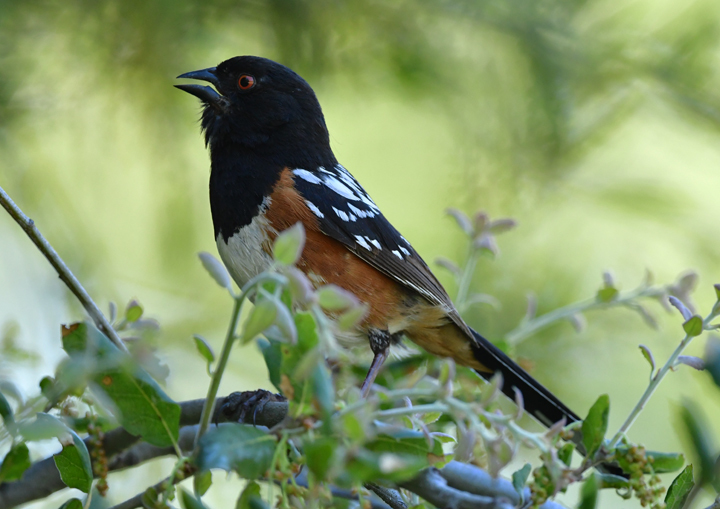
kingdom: Animalia
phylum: Chordata
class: Aves
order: Passeriformes
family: Passerellidae
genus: Pipilo
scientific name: Pipilo maculatus
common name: Spotted towhee
